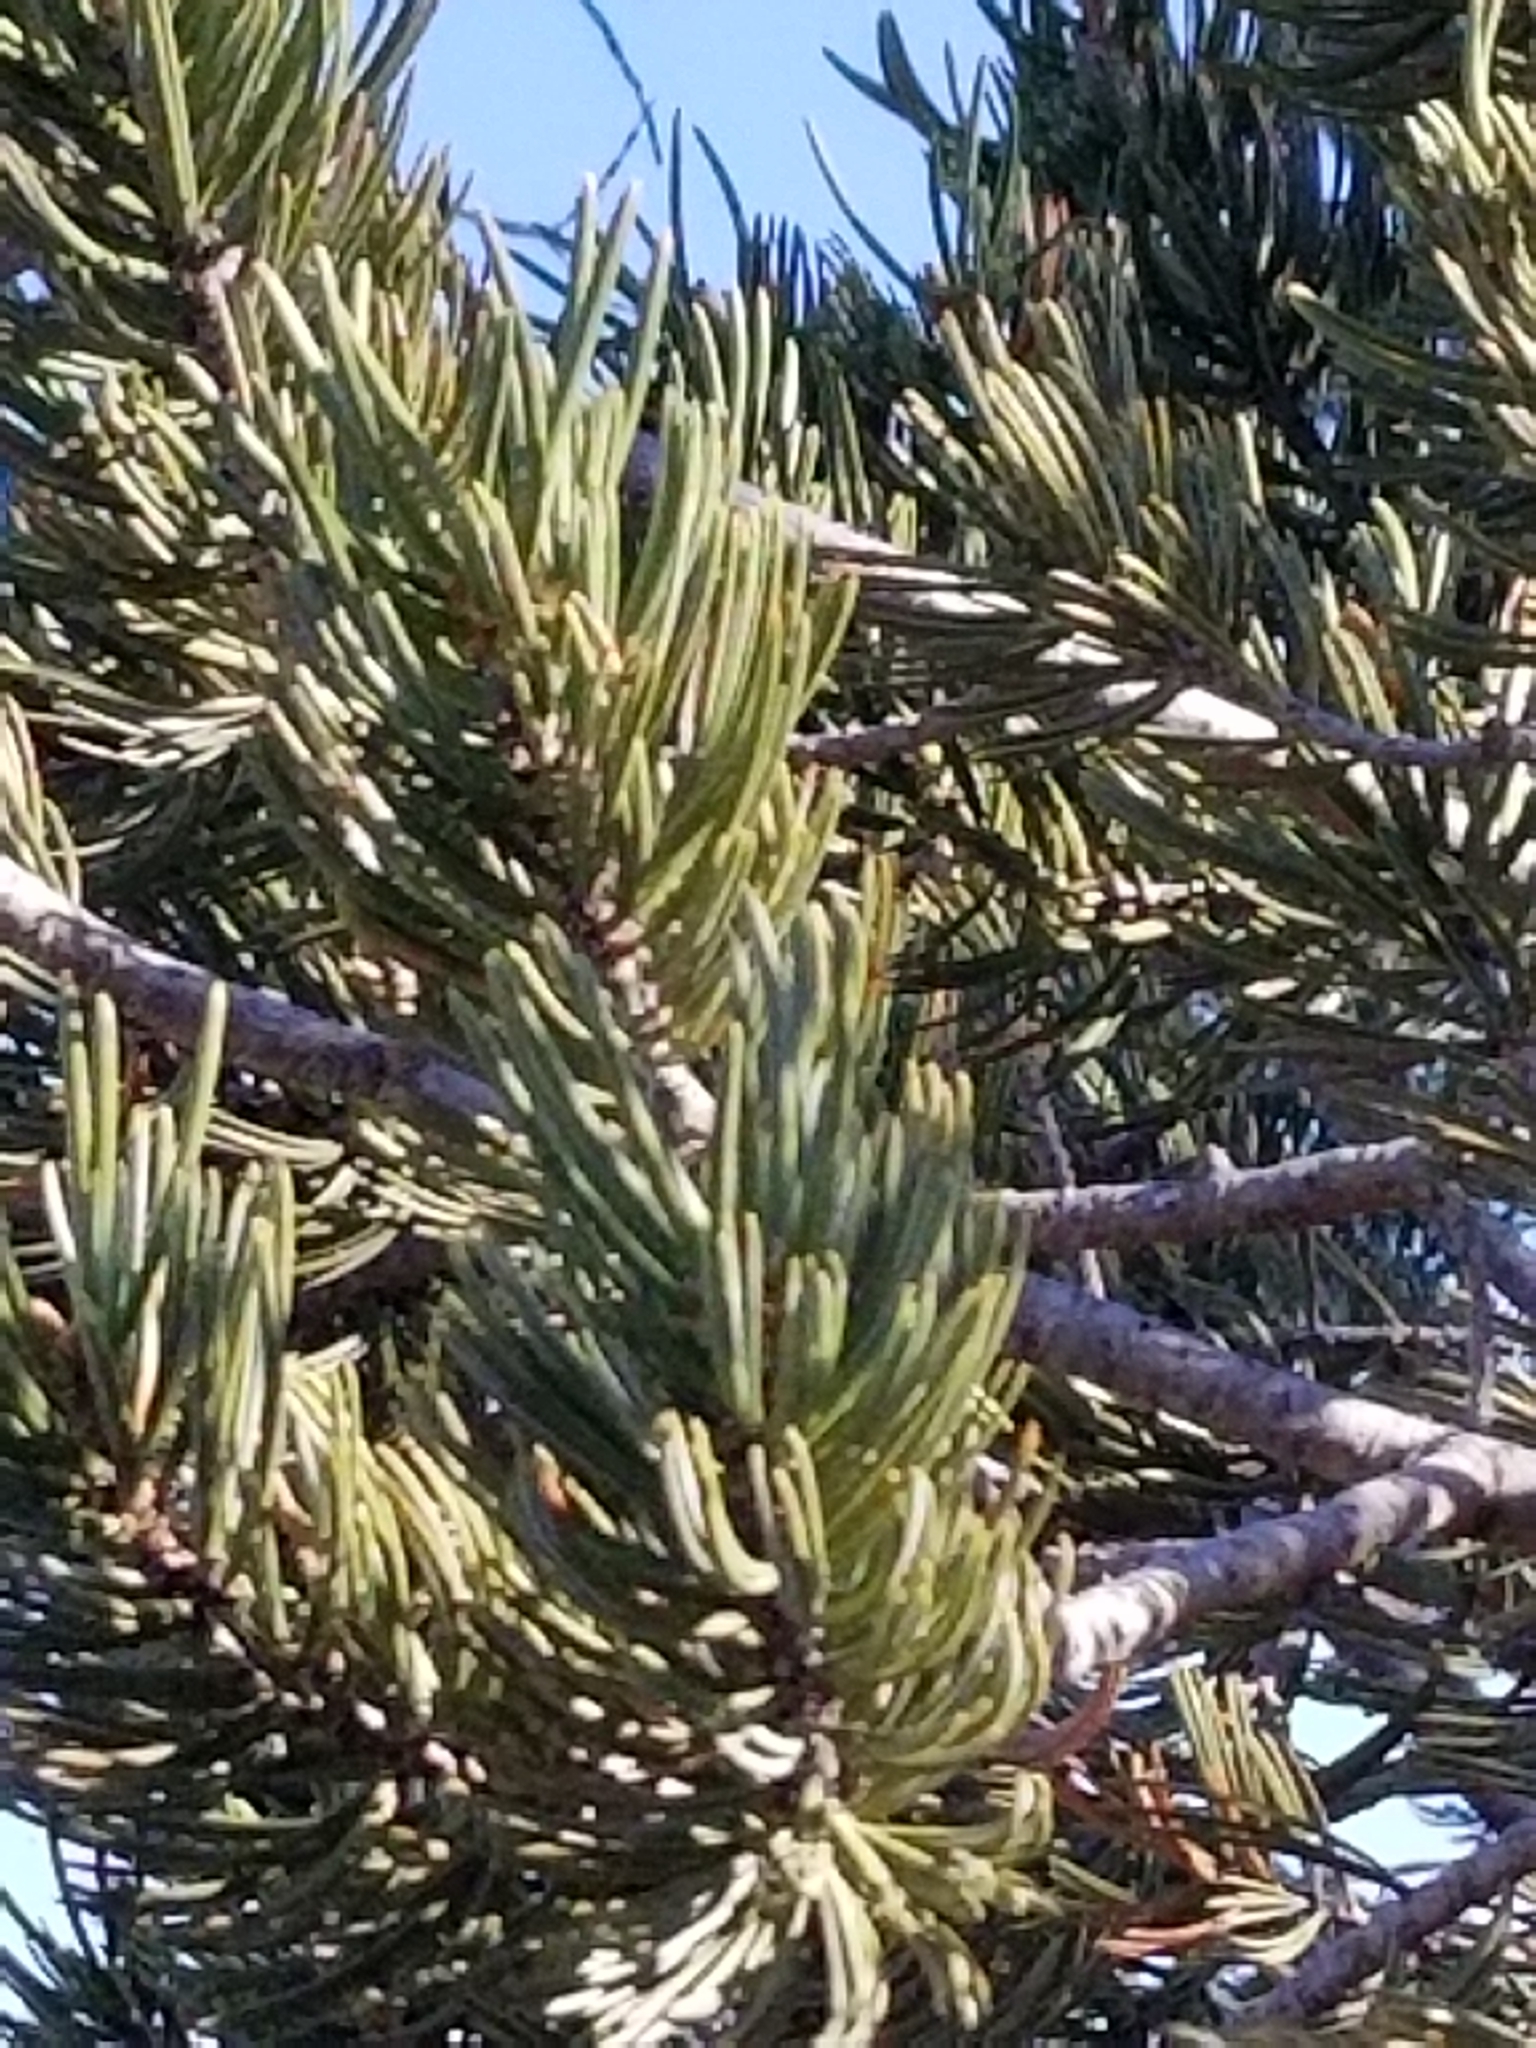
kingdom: Plantae
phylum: Tracheophyta
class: Pinopsida
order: Pinales
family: Pinaceae
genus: Pinus
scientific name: Pinus quadrifolia
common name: Parry pinyon
